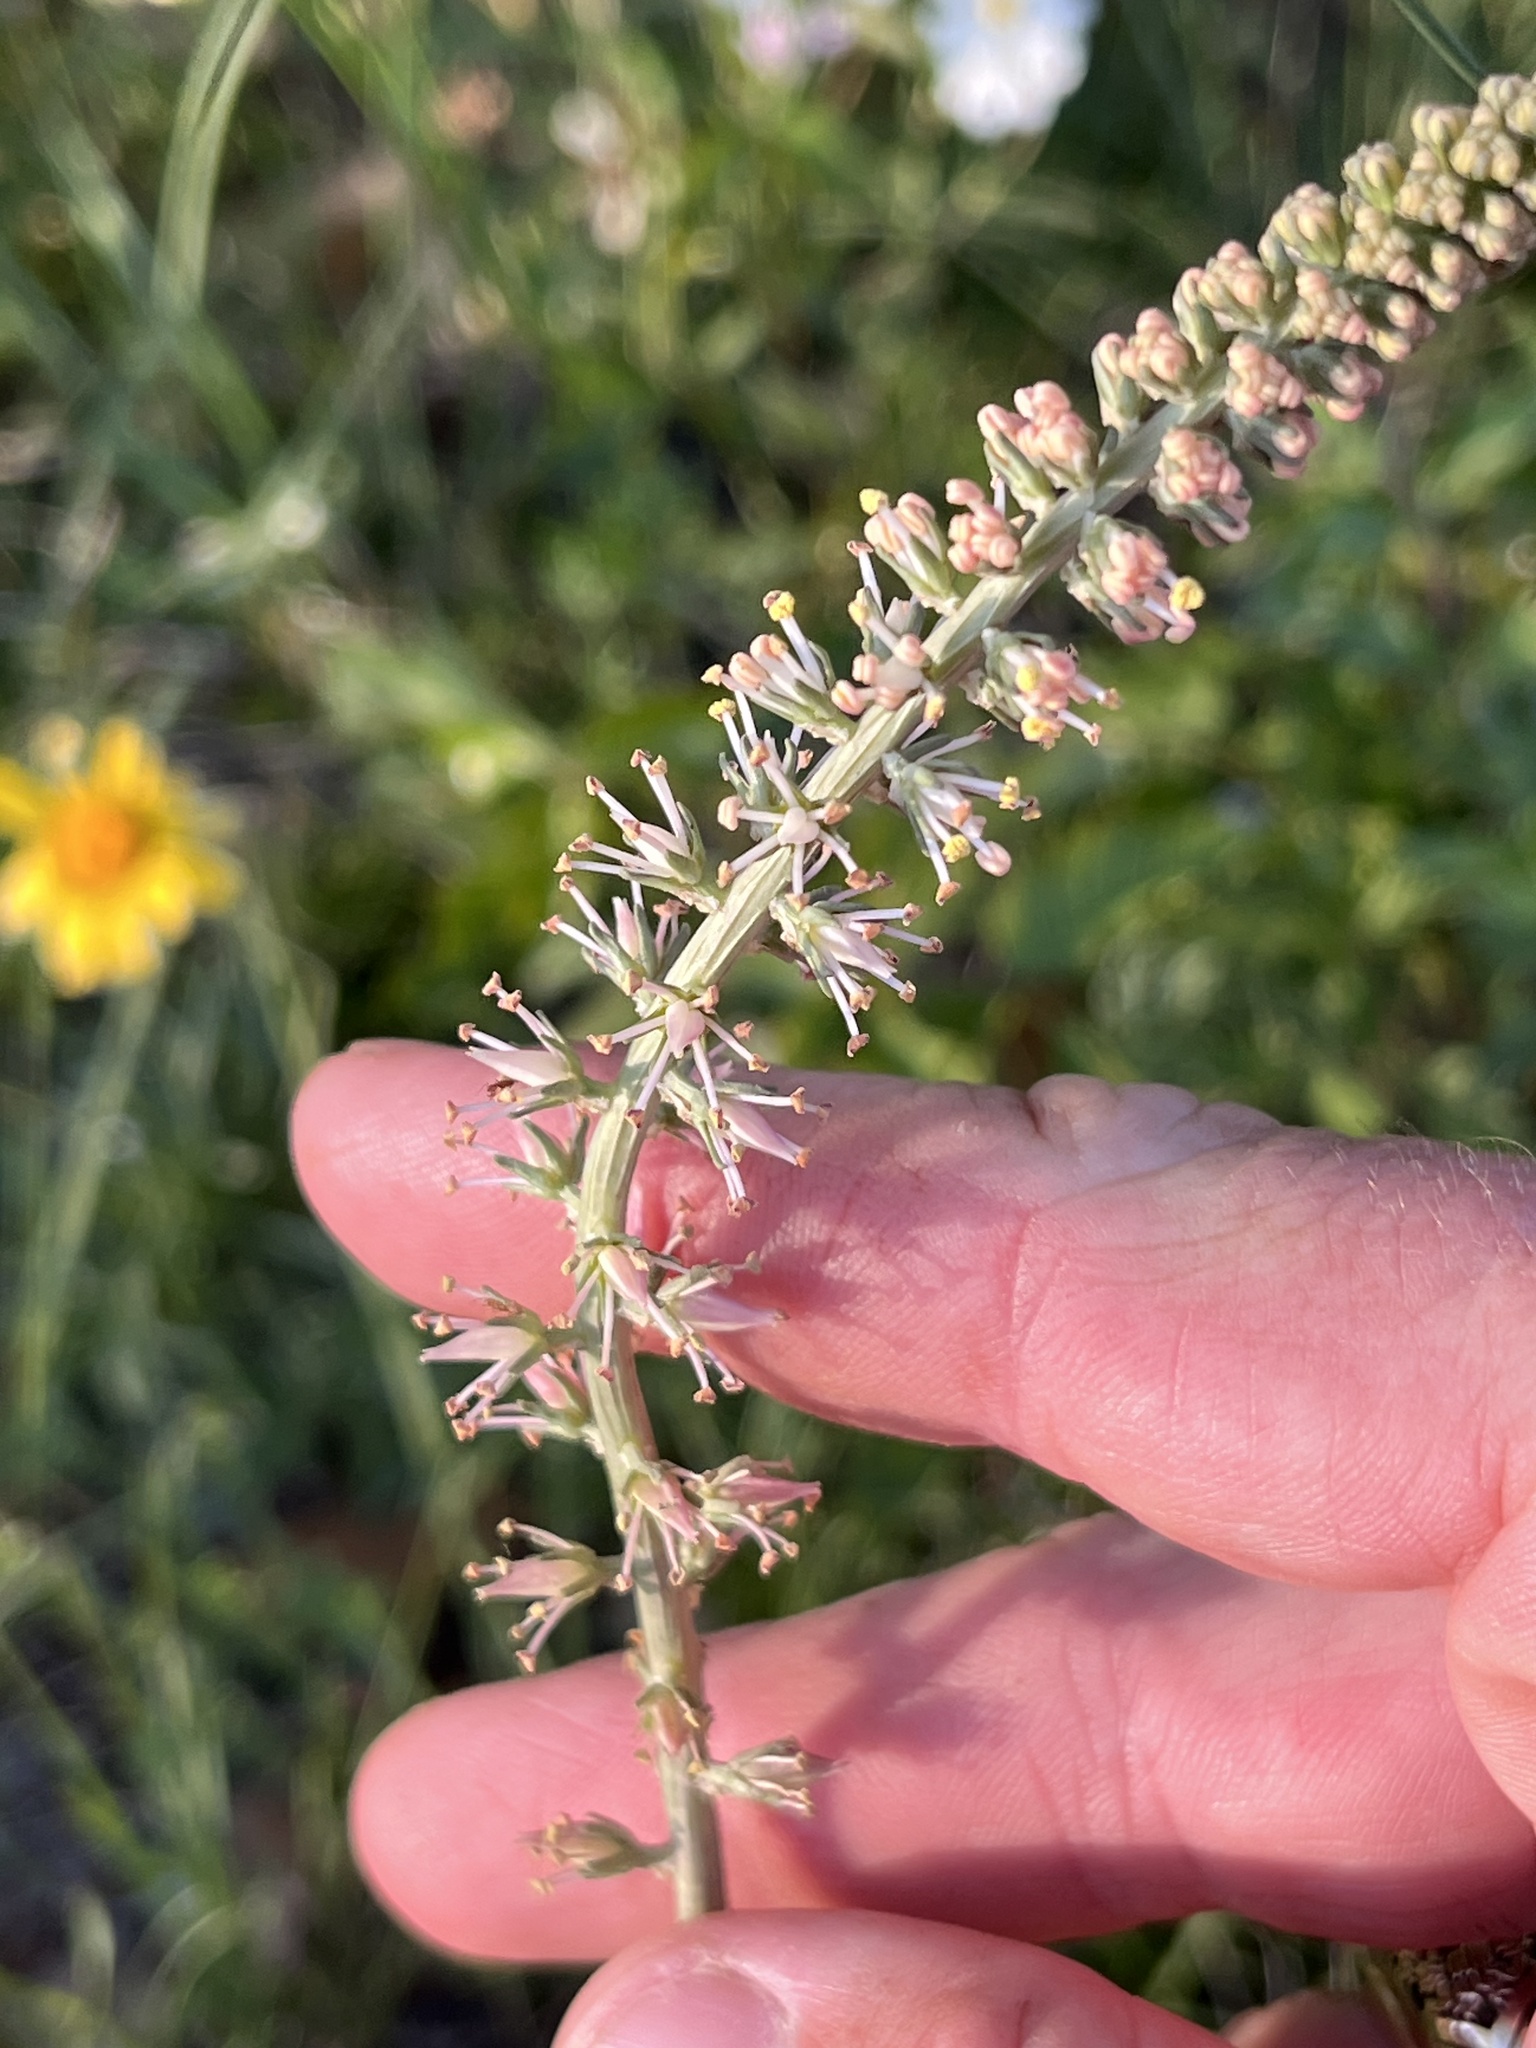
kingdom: Plantae
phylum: Tracheophyta
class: Liliopsida
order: Liliales
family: Melanthiaceae
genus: Schoenocaulon
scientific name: Schoenocaulon texanum
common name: Texas feather-shank
